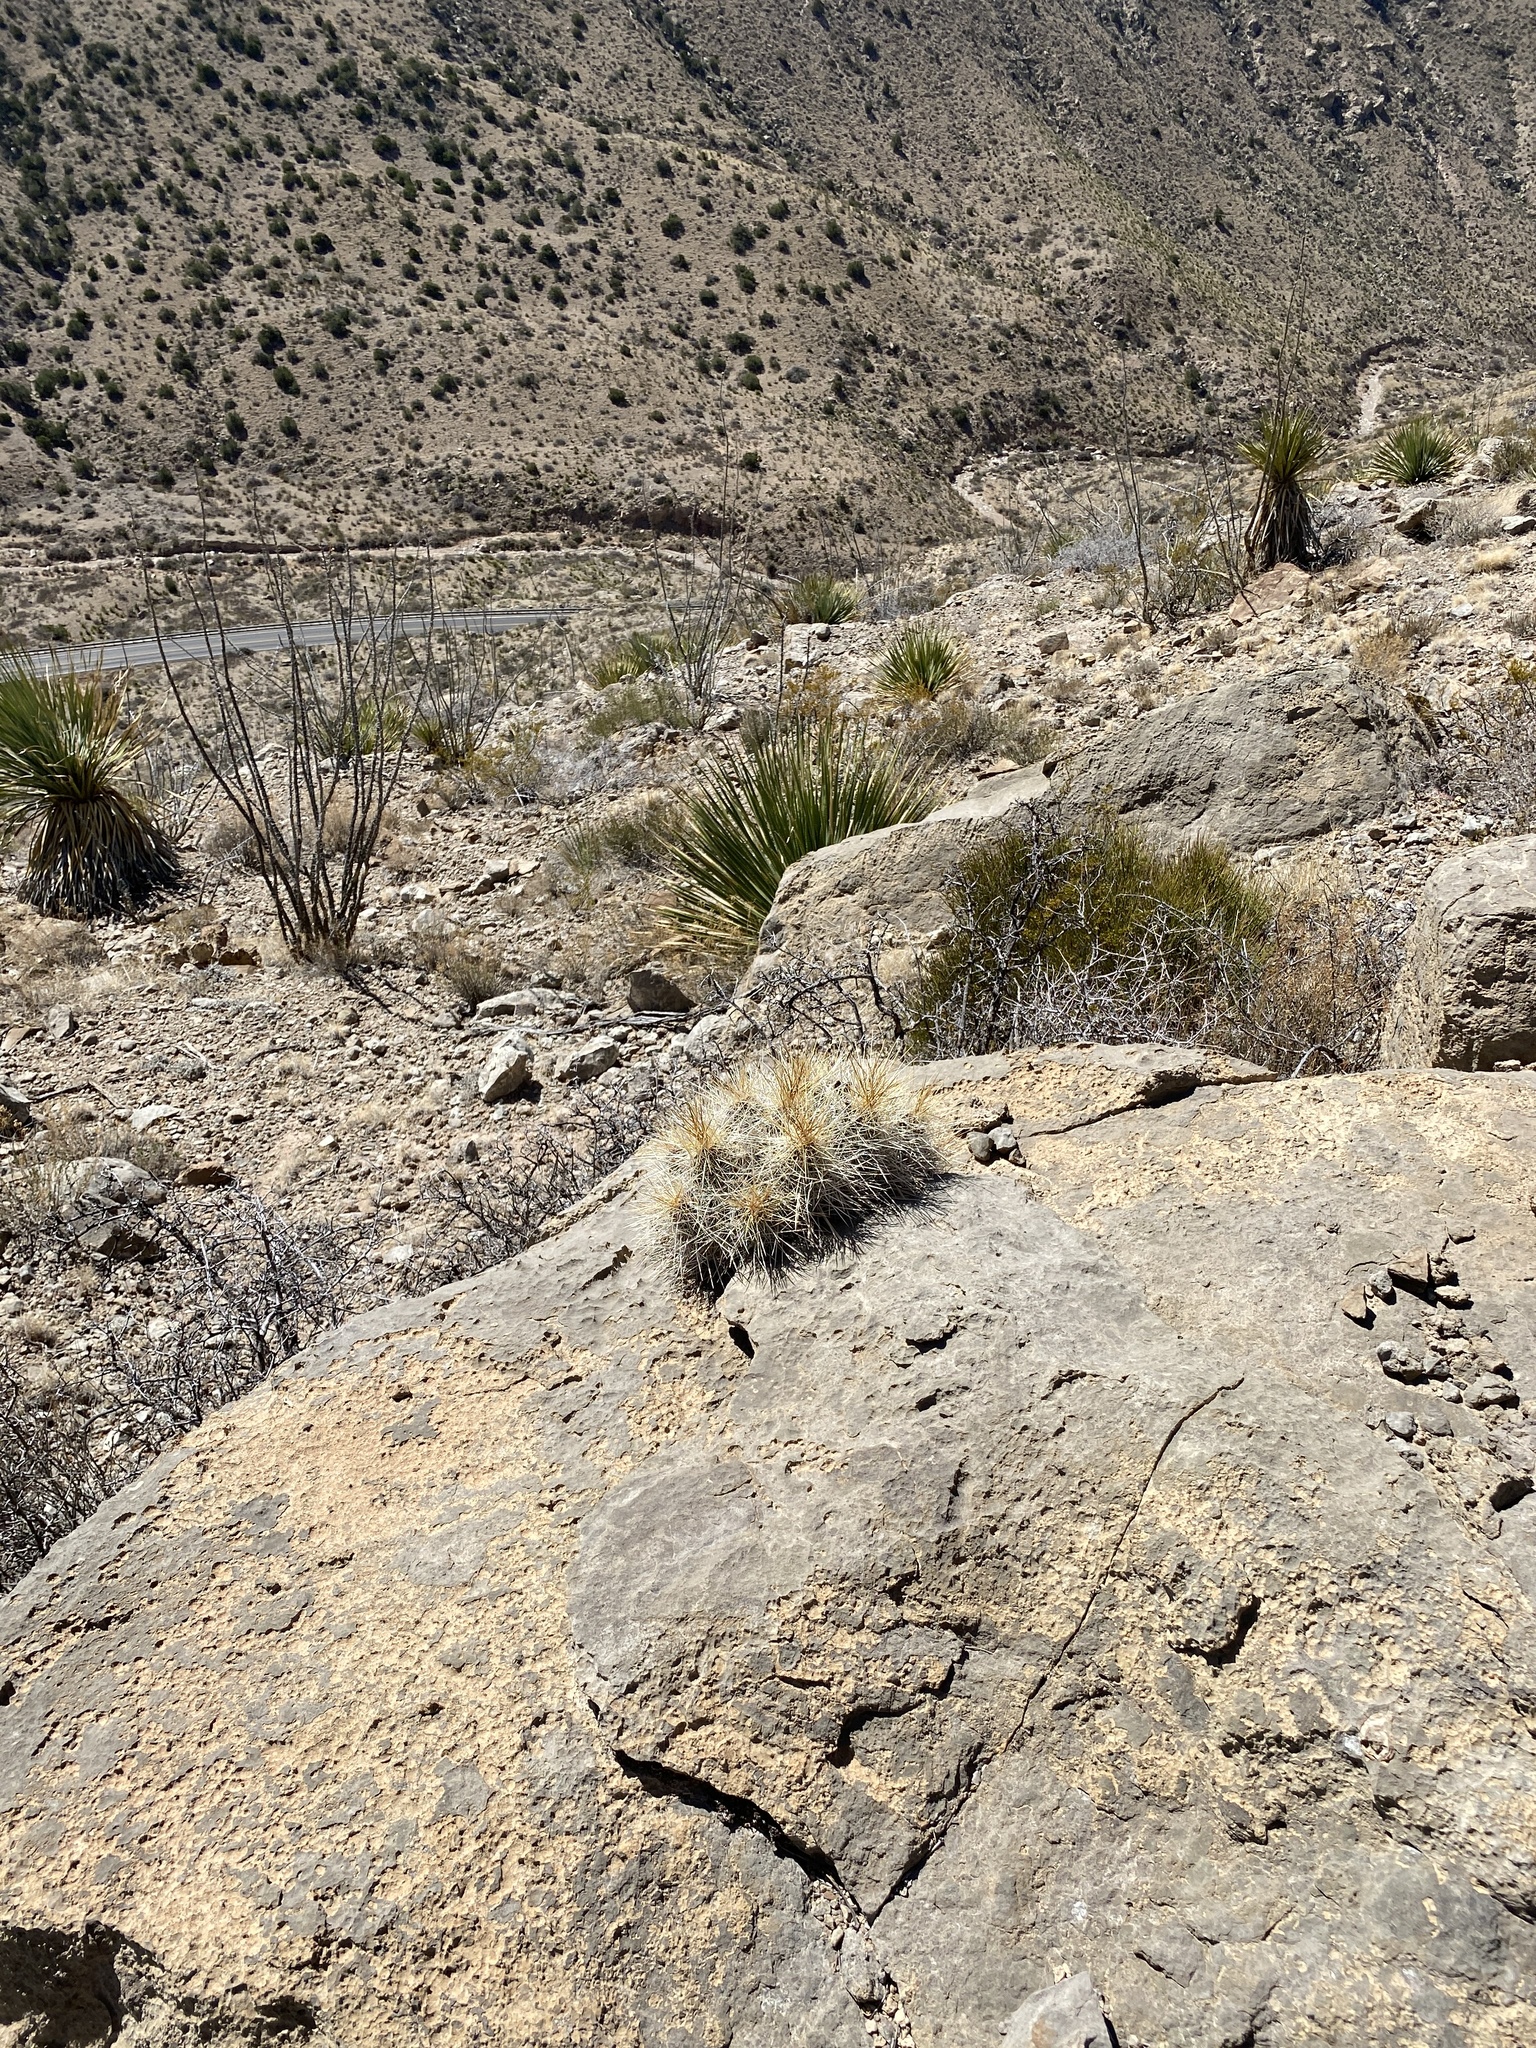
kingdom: Plantae
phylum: Tracheophyta
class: Magnoliopsida
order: Caryophyllales
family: Cactaceae
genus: Echinocereus
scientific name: Echinocereus stramineus
